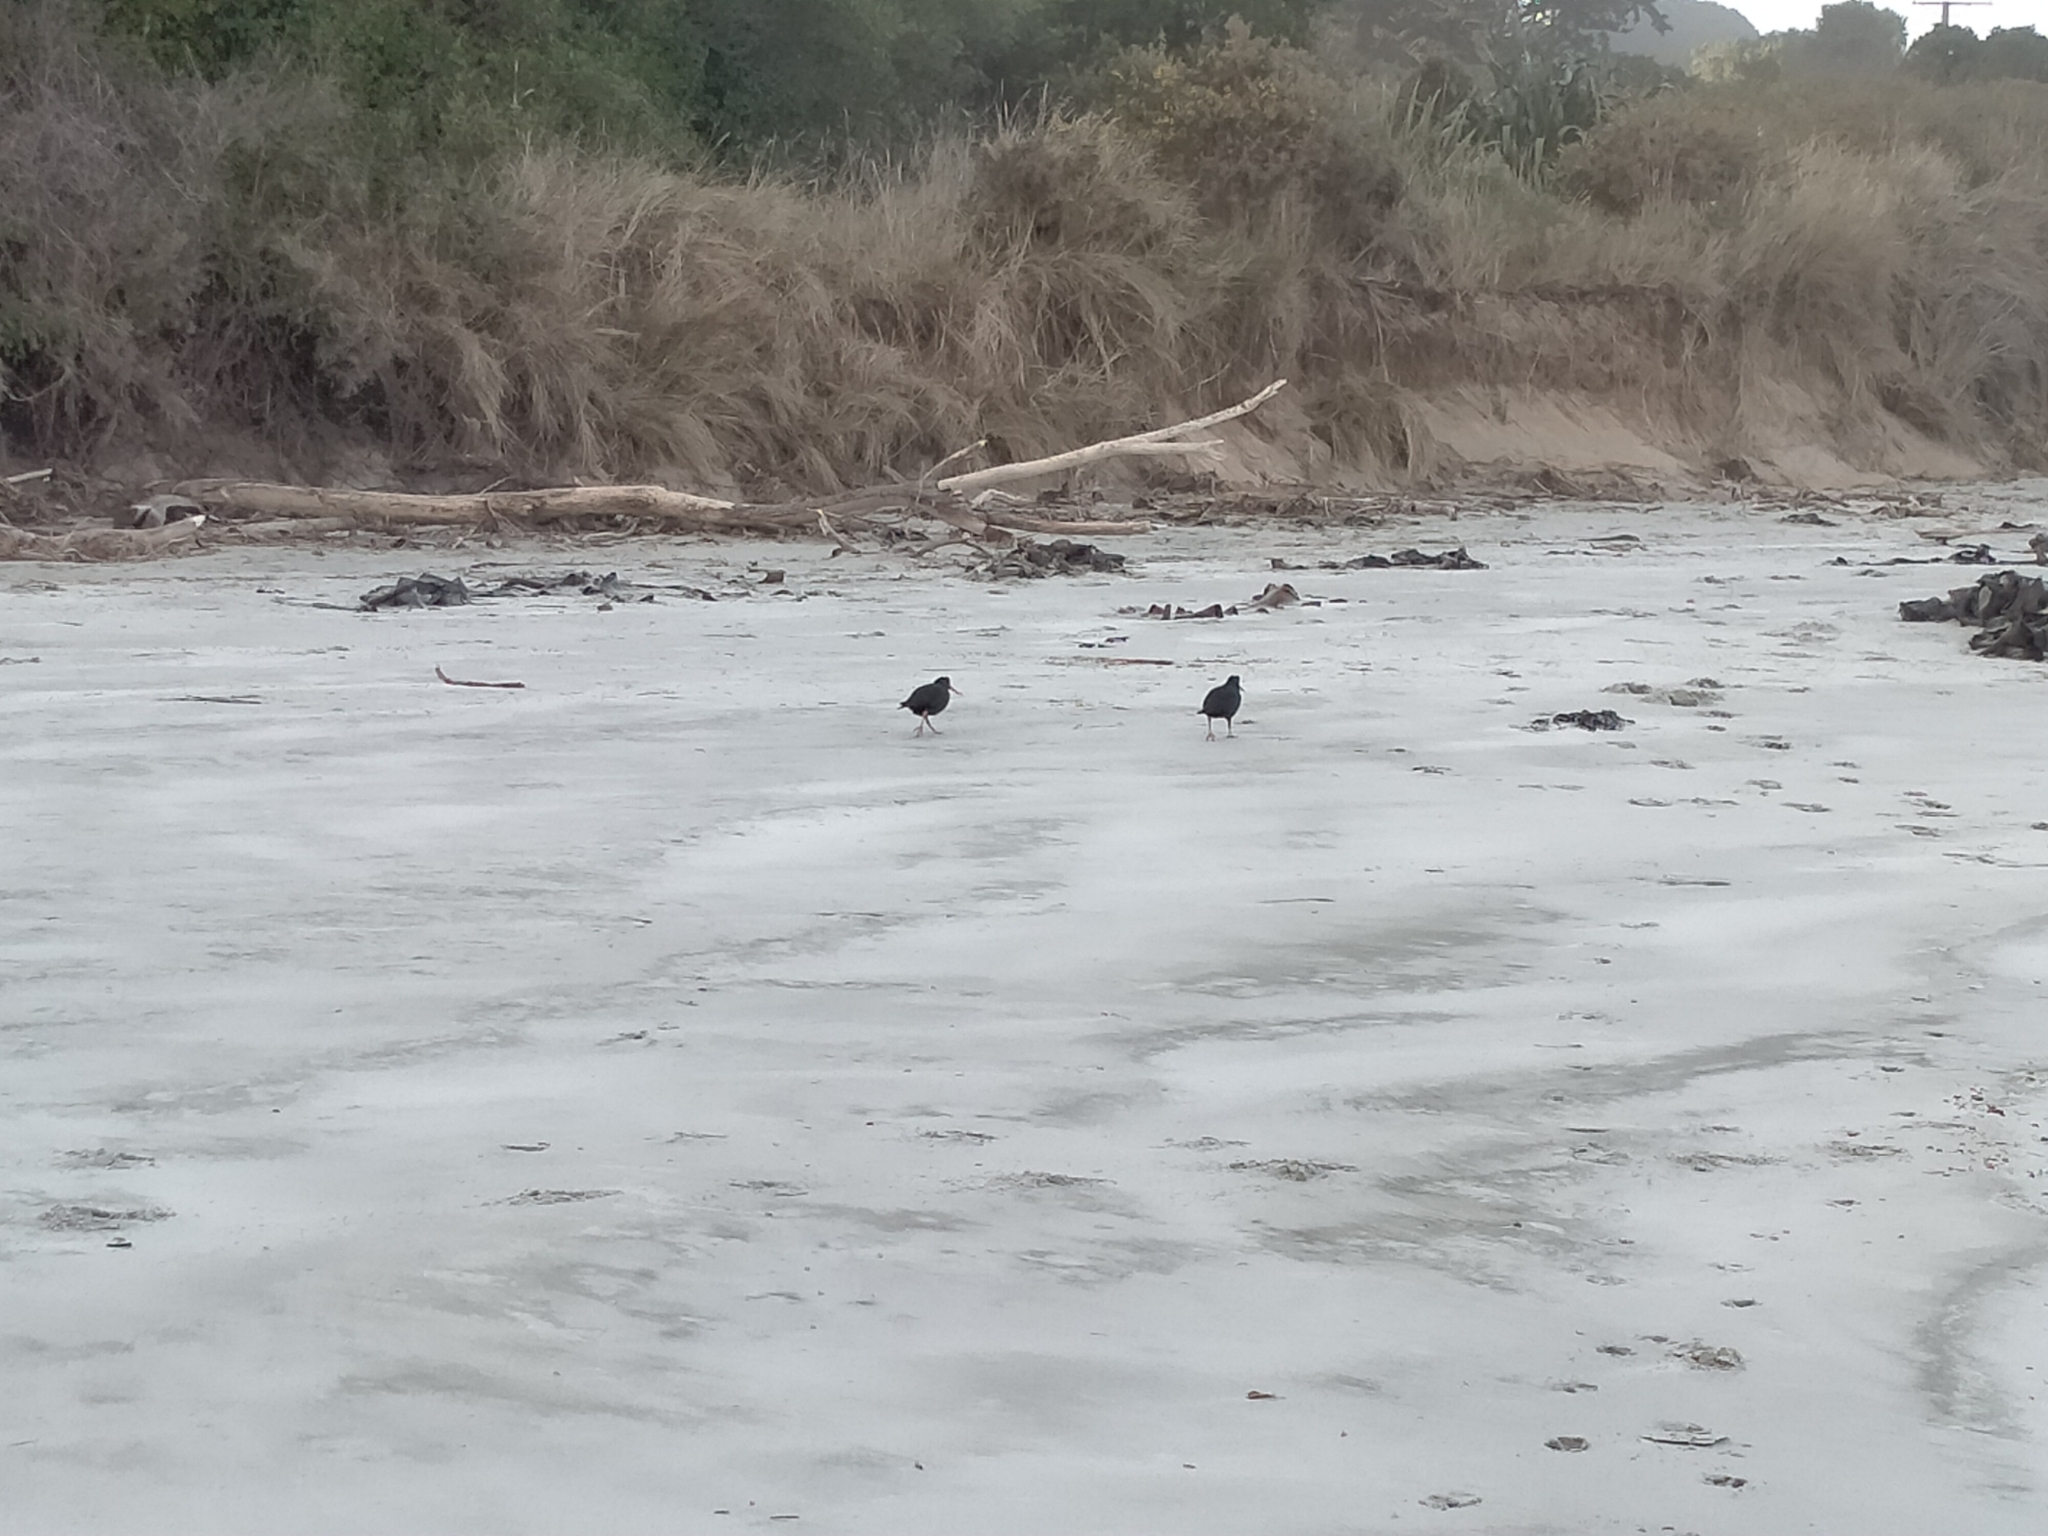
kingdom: Animalia
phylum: Chordata
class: Aves
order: Charadriiformes
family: Haematopodidae
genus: Haematopus
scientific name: Haematopus unicolor
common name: Variable oystercatcher
